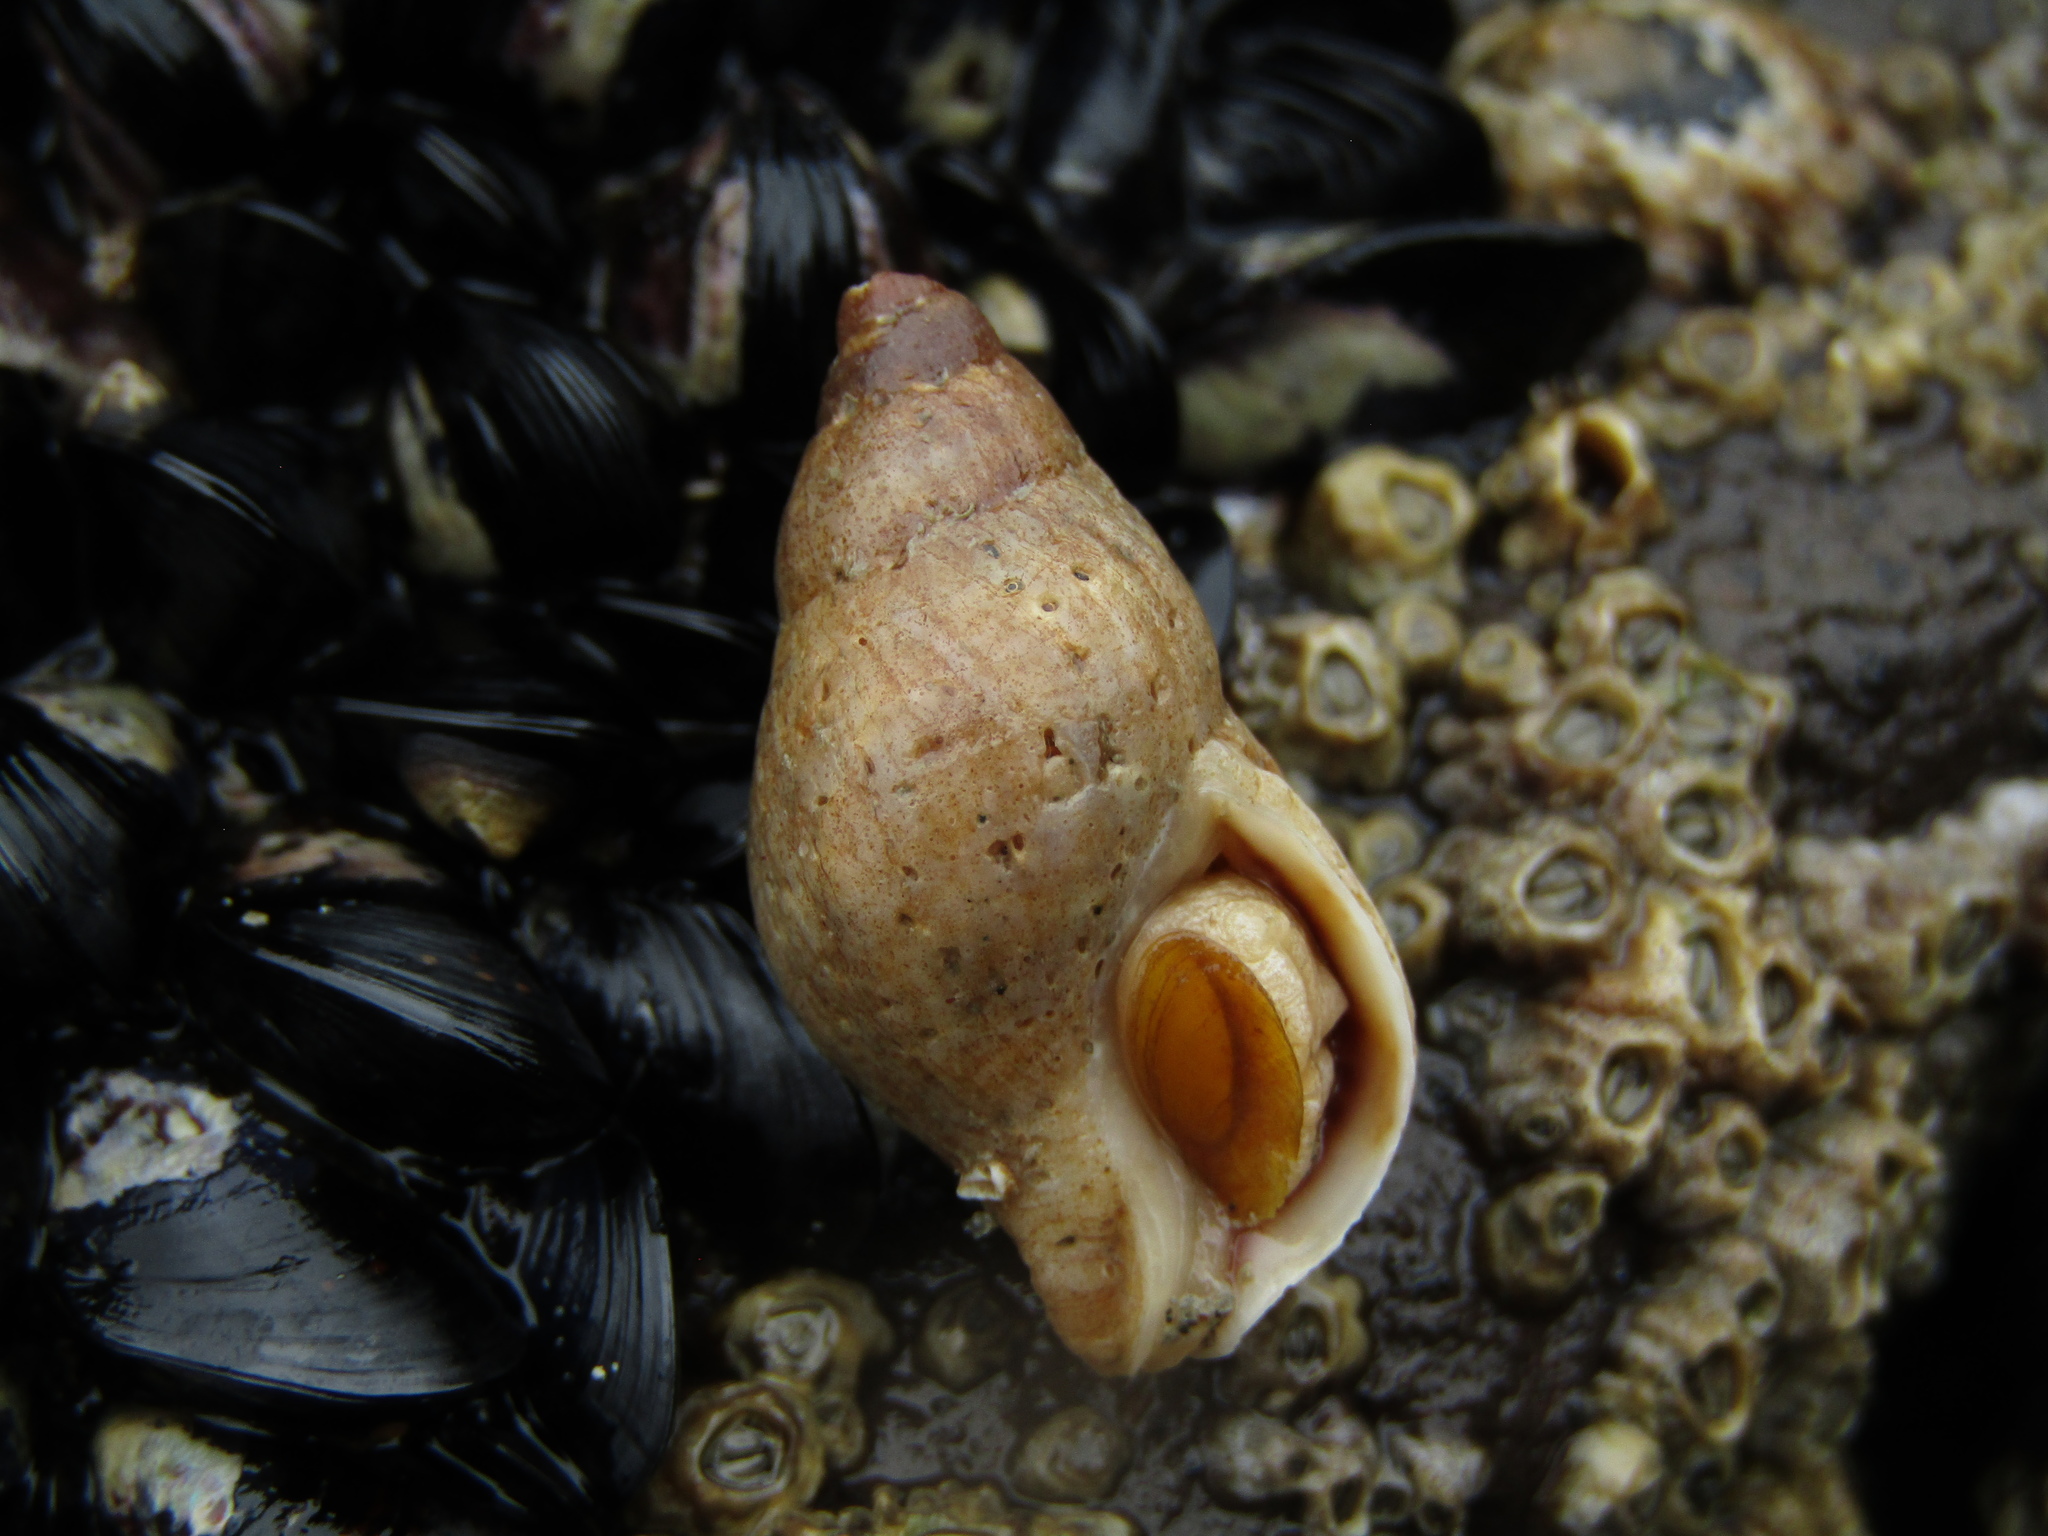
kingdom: Animalia
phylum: Mollusca
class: Gastropoda
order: Neogastropoda
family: Tudiclidae
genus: Buccinulum
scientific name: Buccinulum littorinoides
